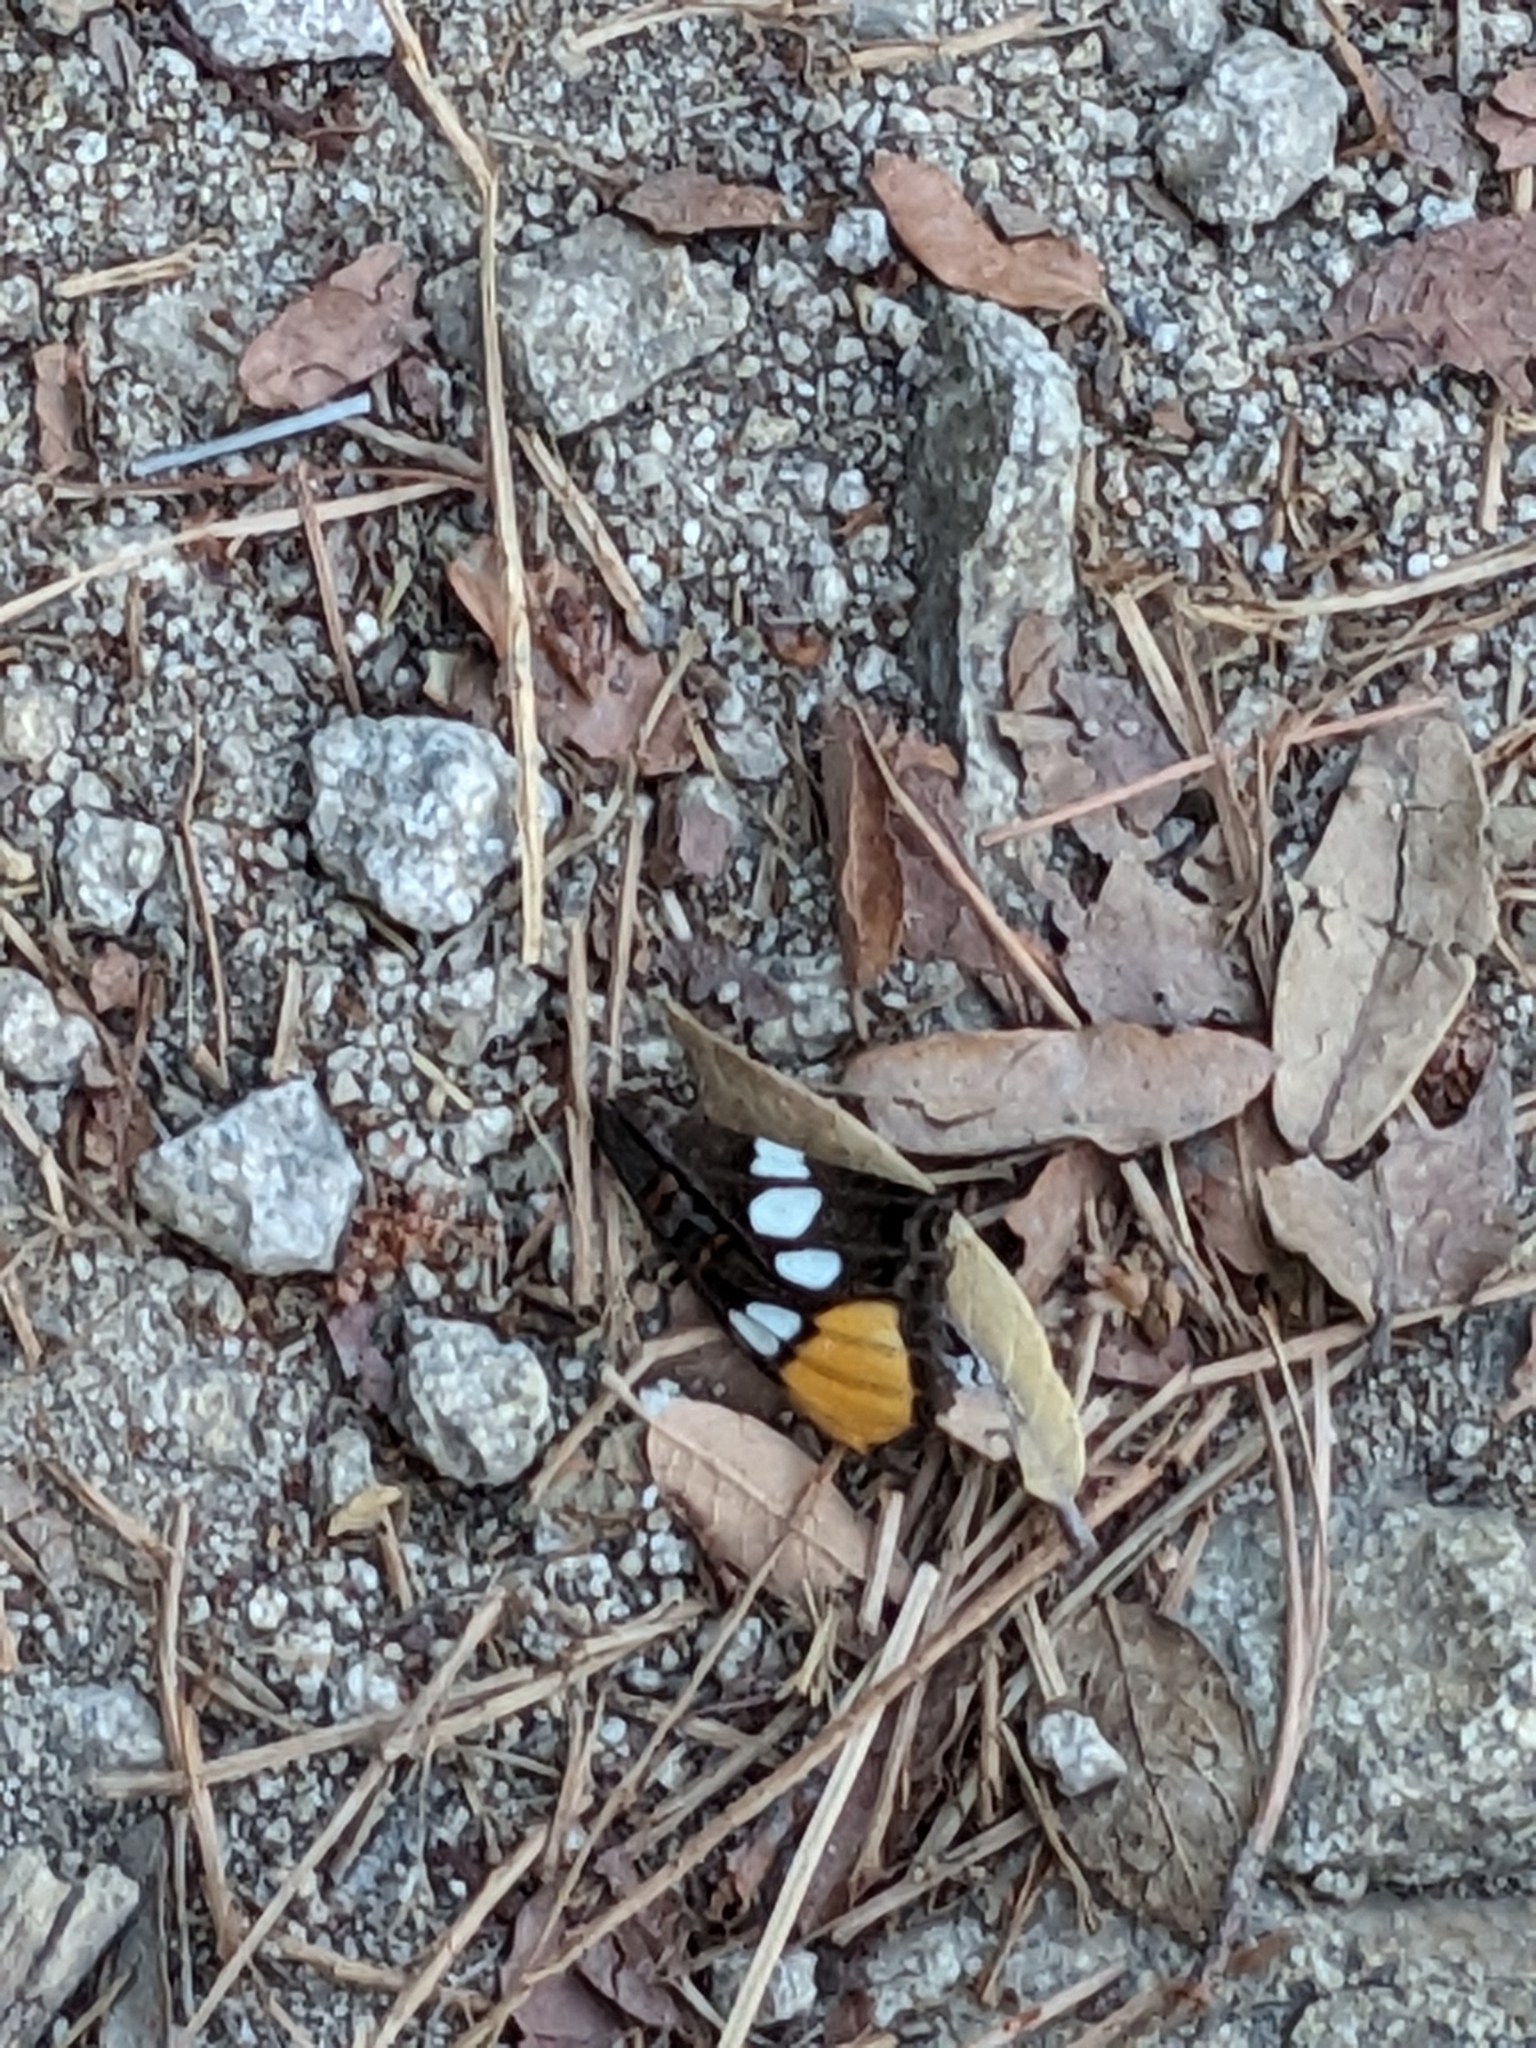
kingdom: Animalia
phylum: Arthropoda
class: Insecta
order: Lepidoptera
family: Nymphalidae
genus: Limenitis
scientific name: Limenitis bredowii
